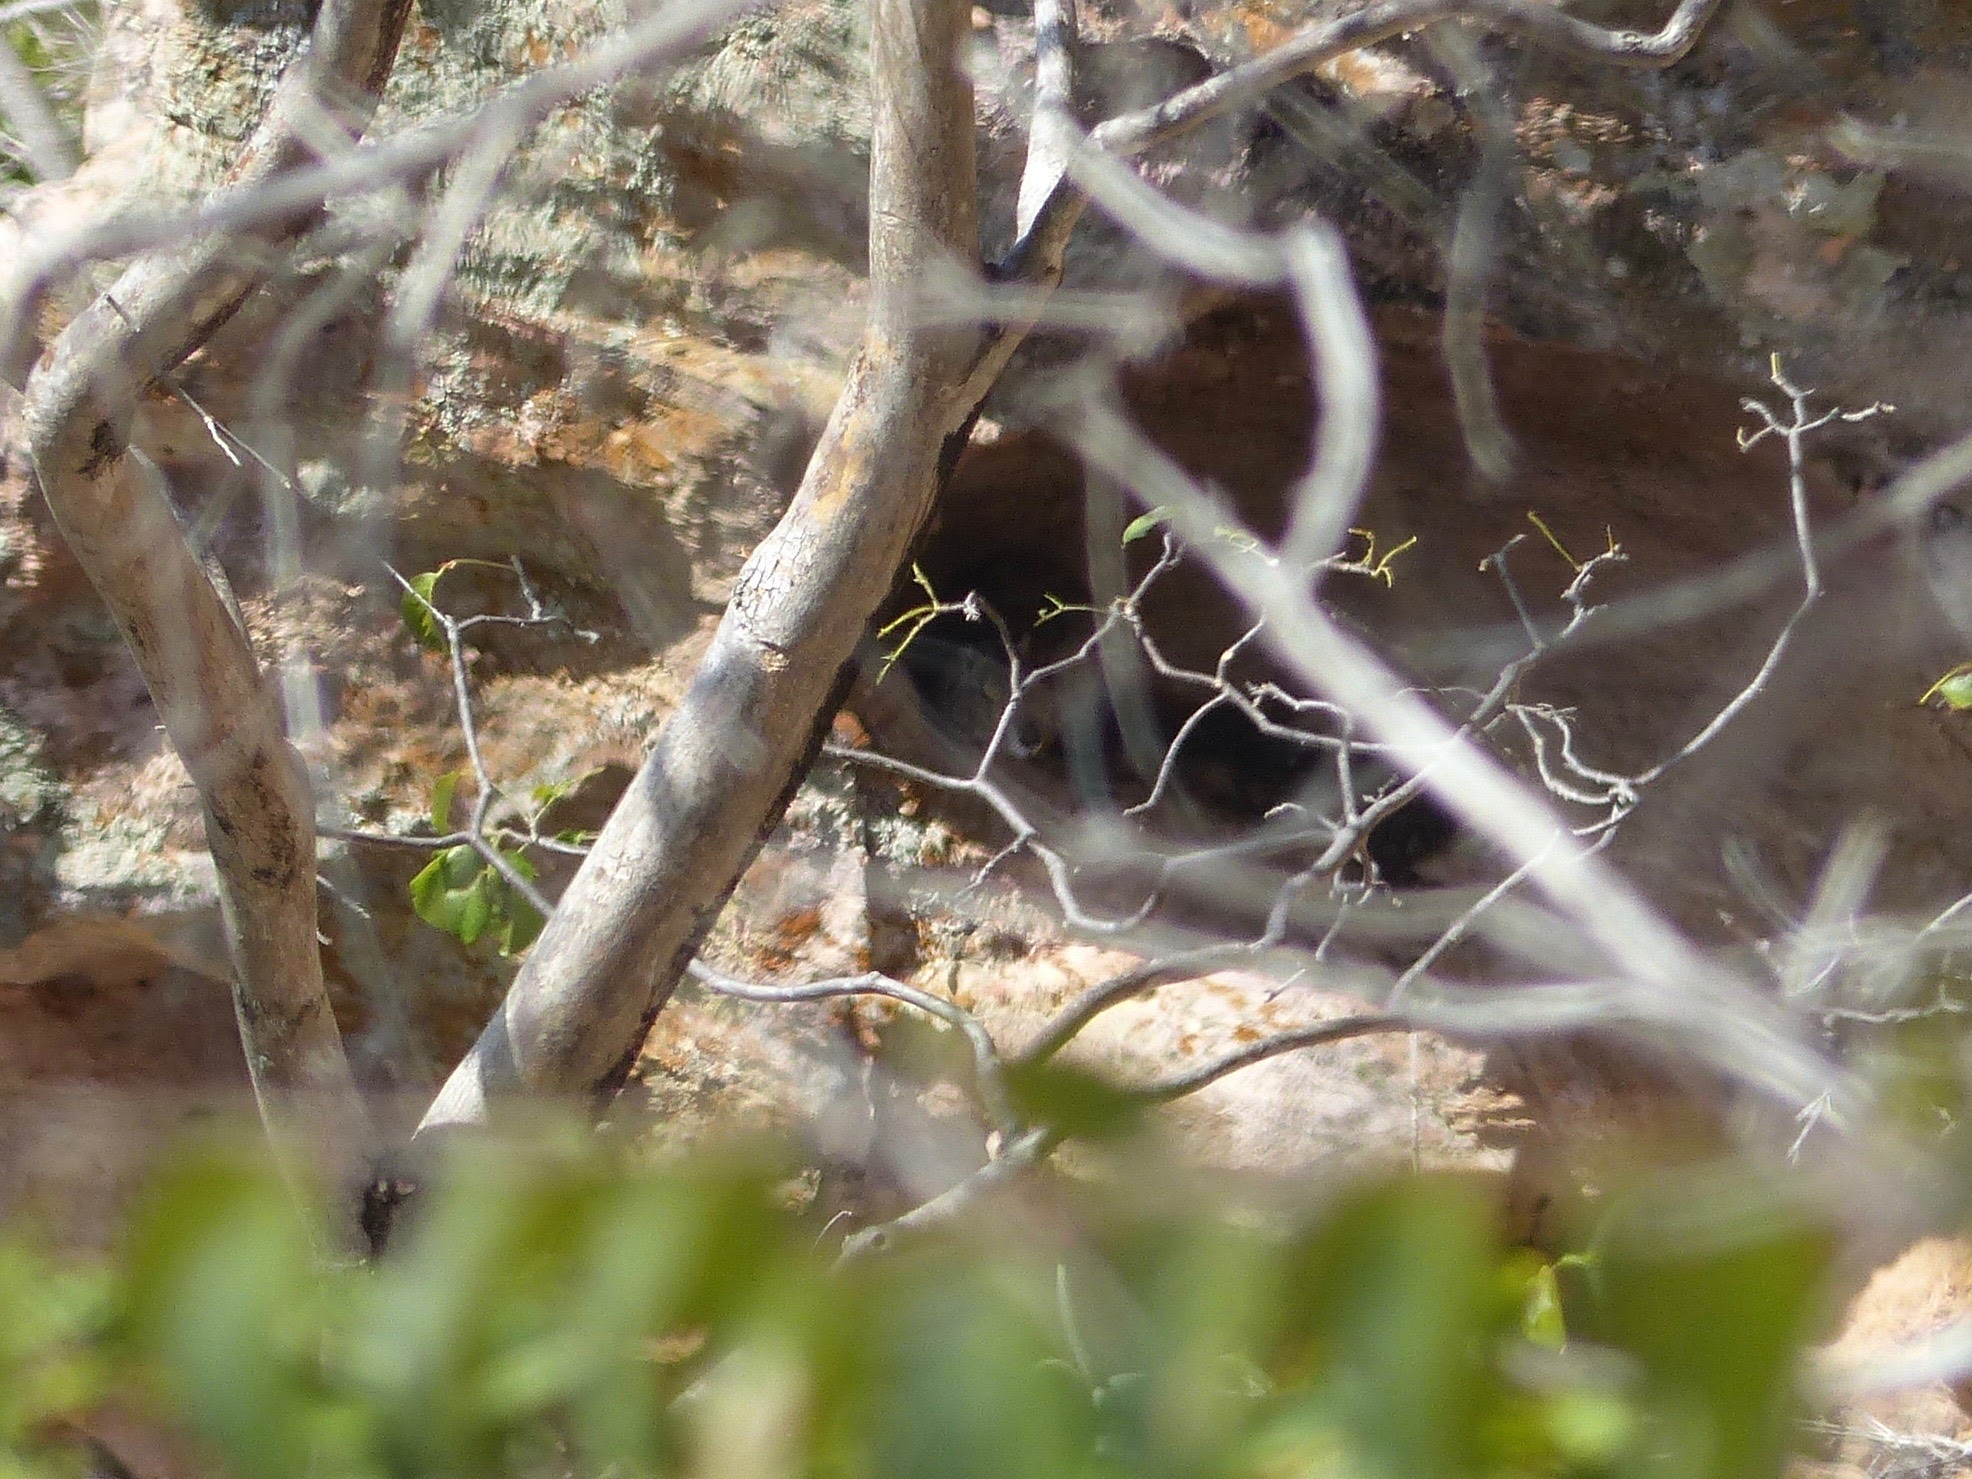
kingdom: Animalia
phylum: Chordata
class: Mammalia
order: Rodentia
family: Caviidae
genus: Kerodon
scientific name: Kerodon rupestris
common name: Rock cavy
